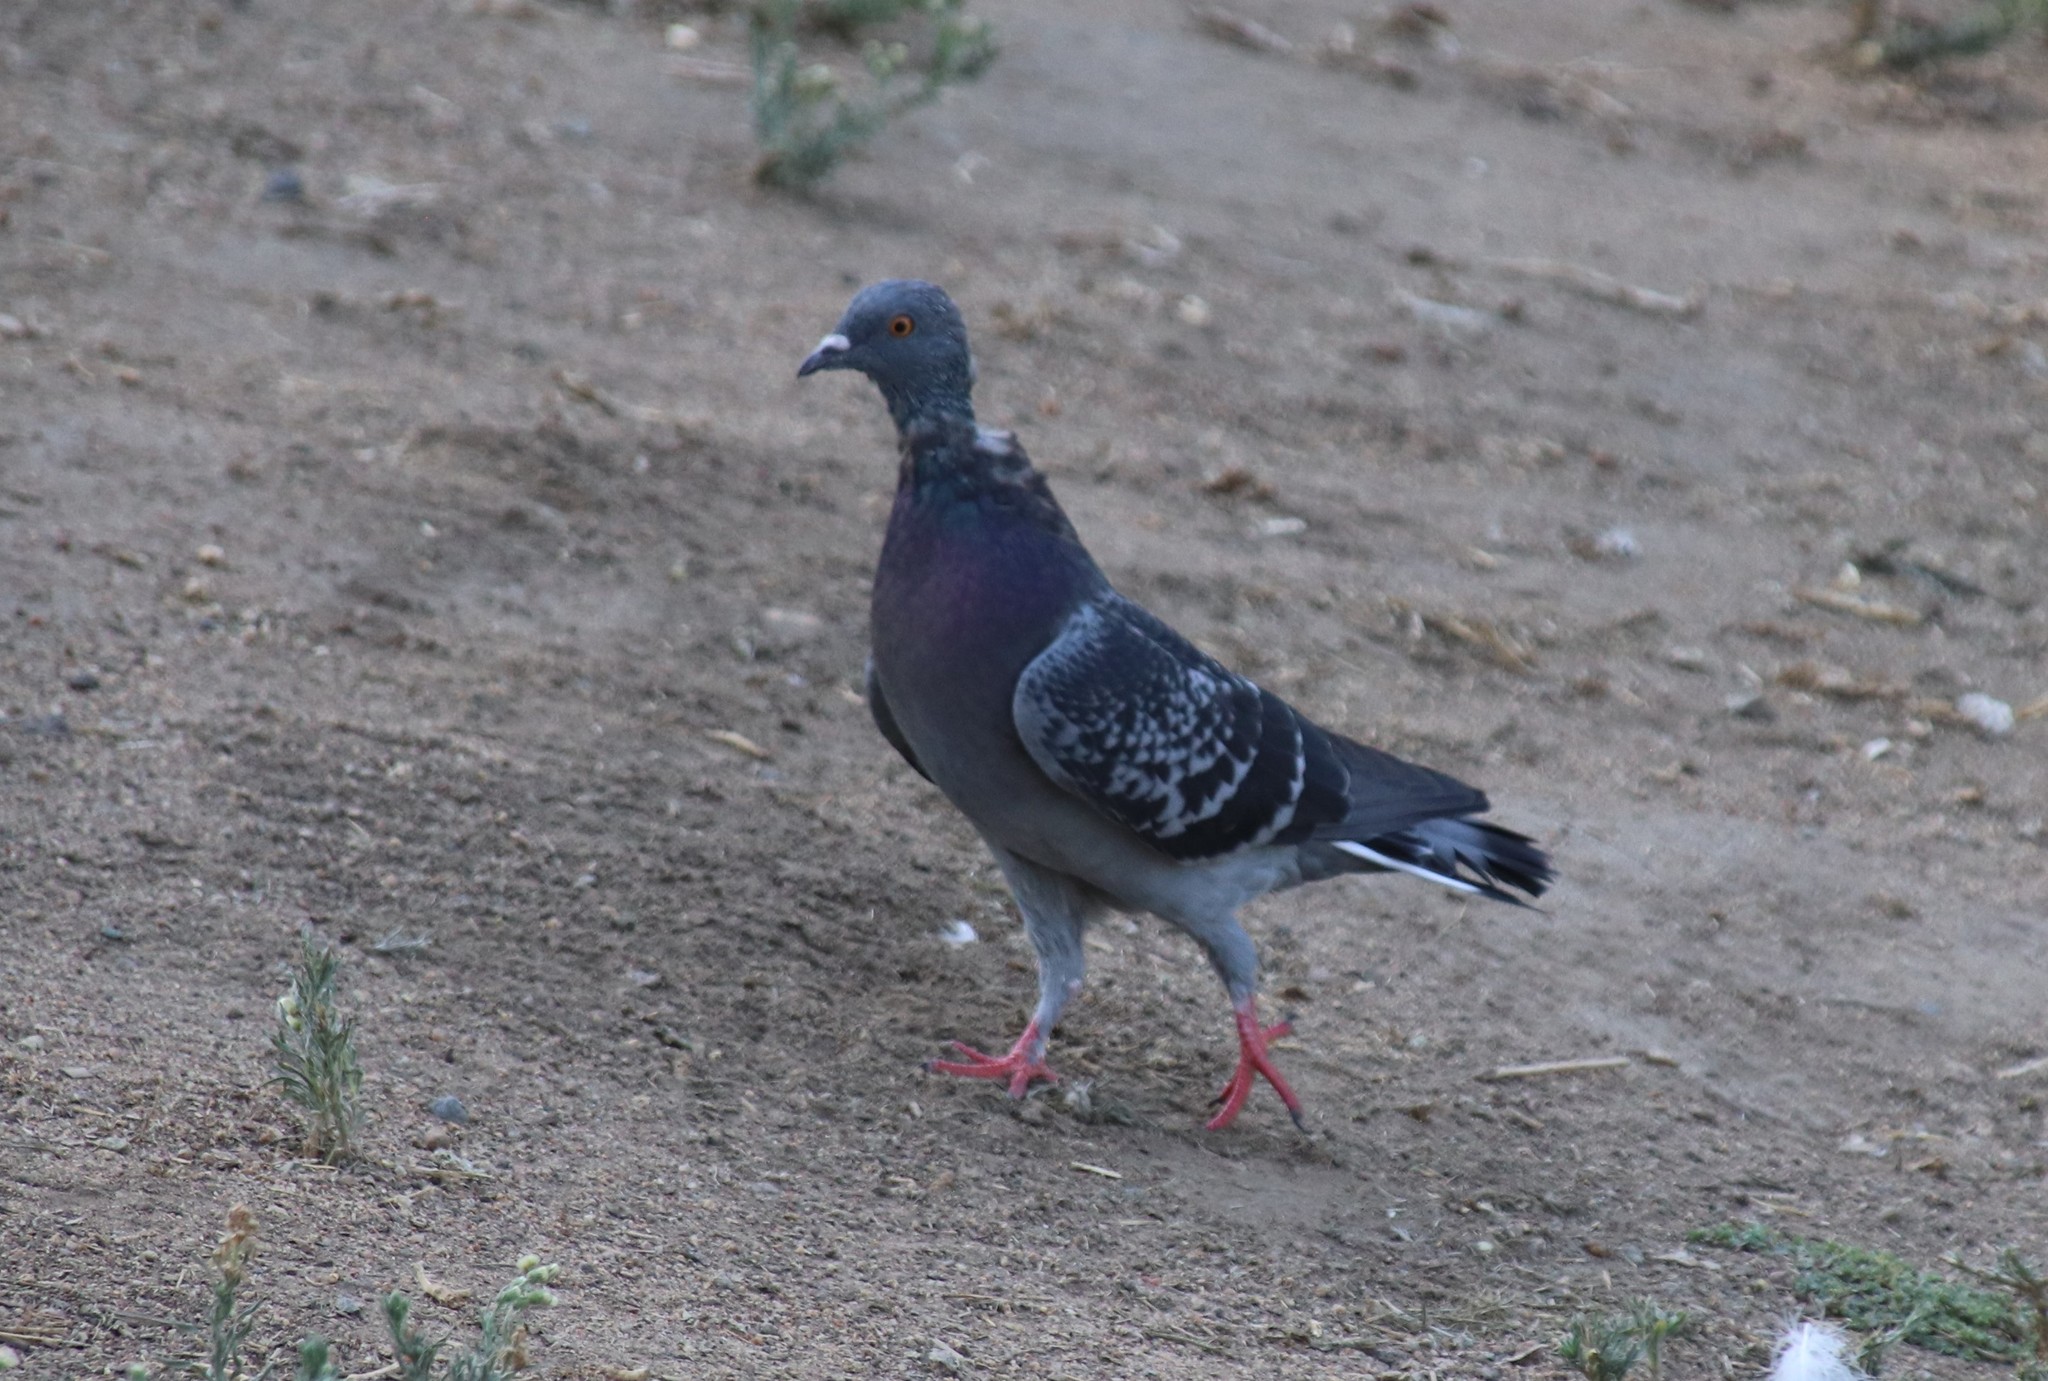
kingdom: Animalia
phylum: Chordata
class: Aves
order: Columbiformes
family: Columbidae
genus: Columba
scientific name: Columba livia
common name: Rock pigeon
